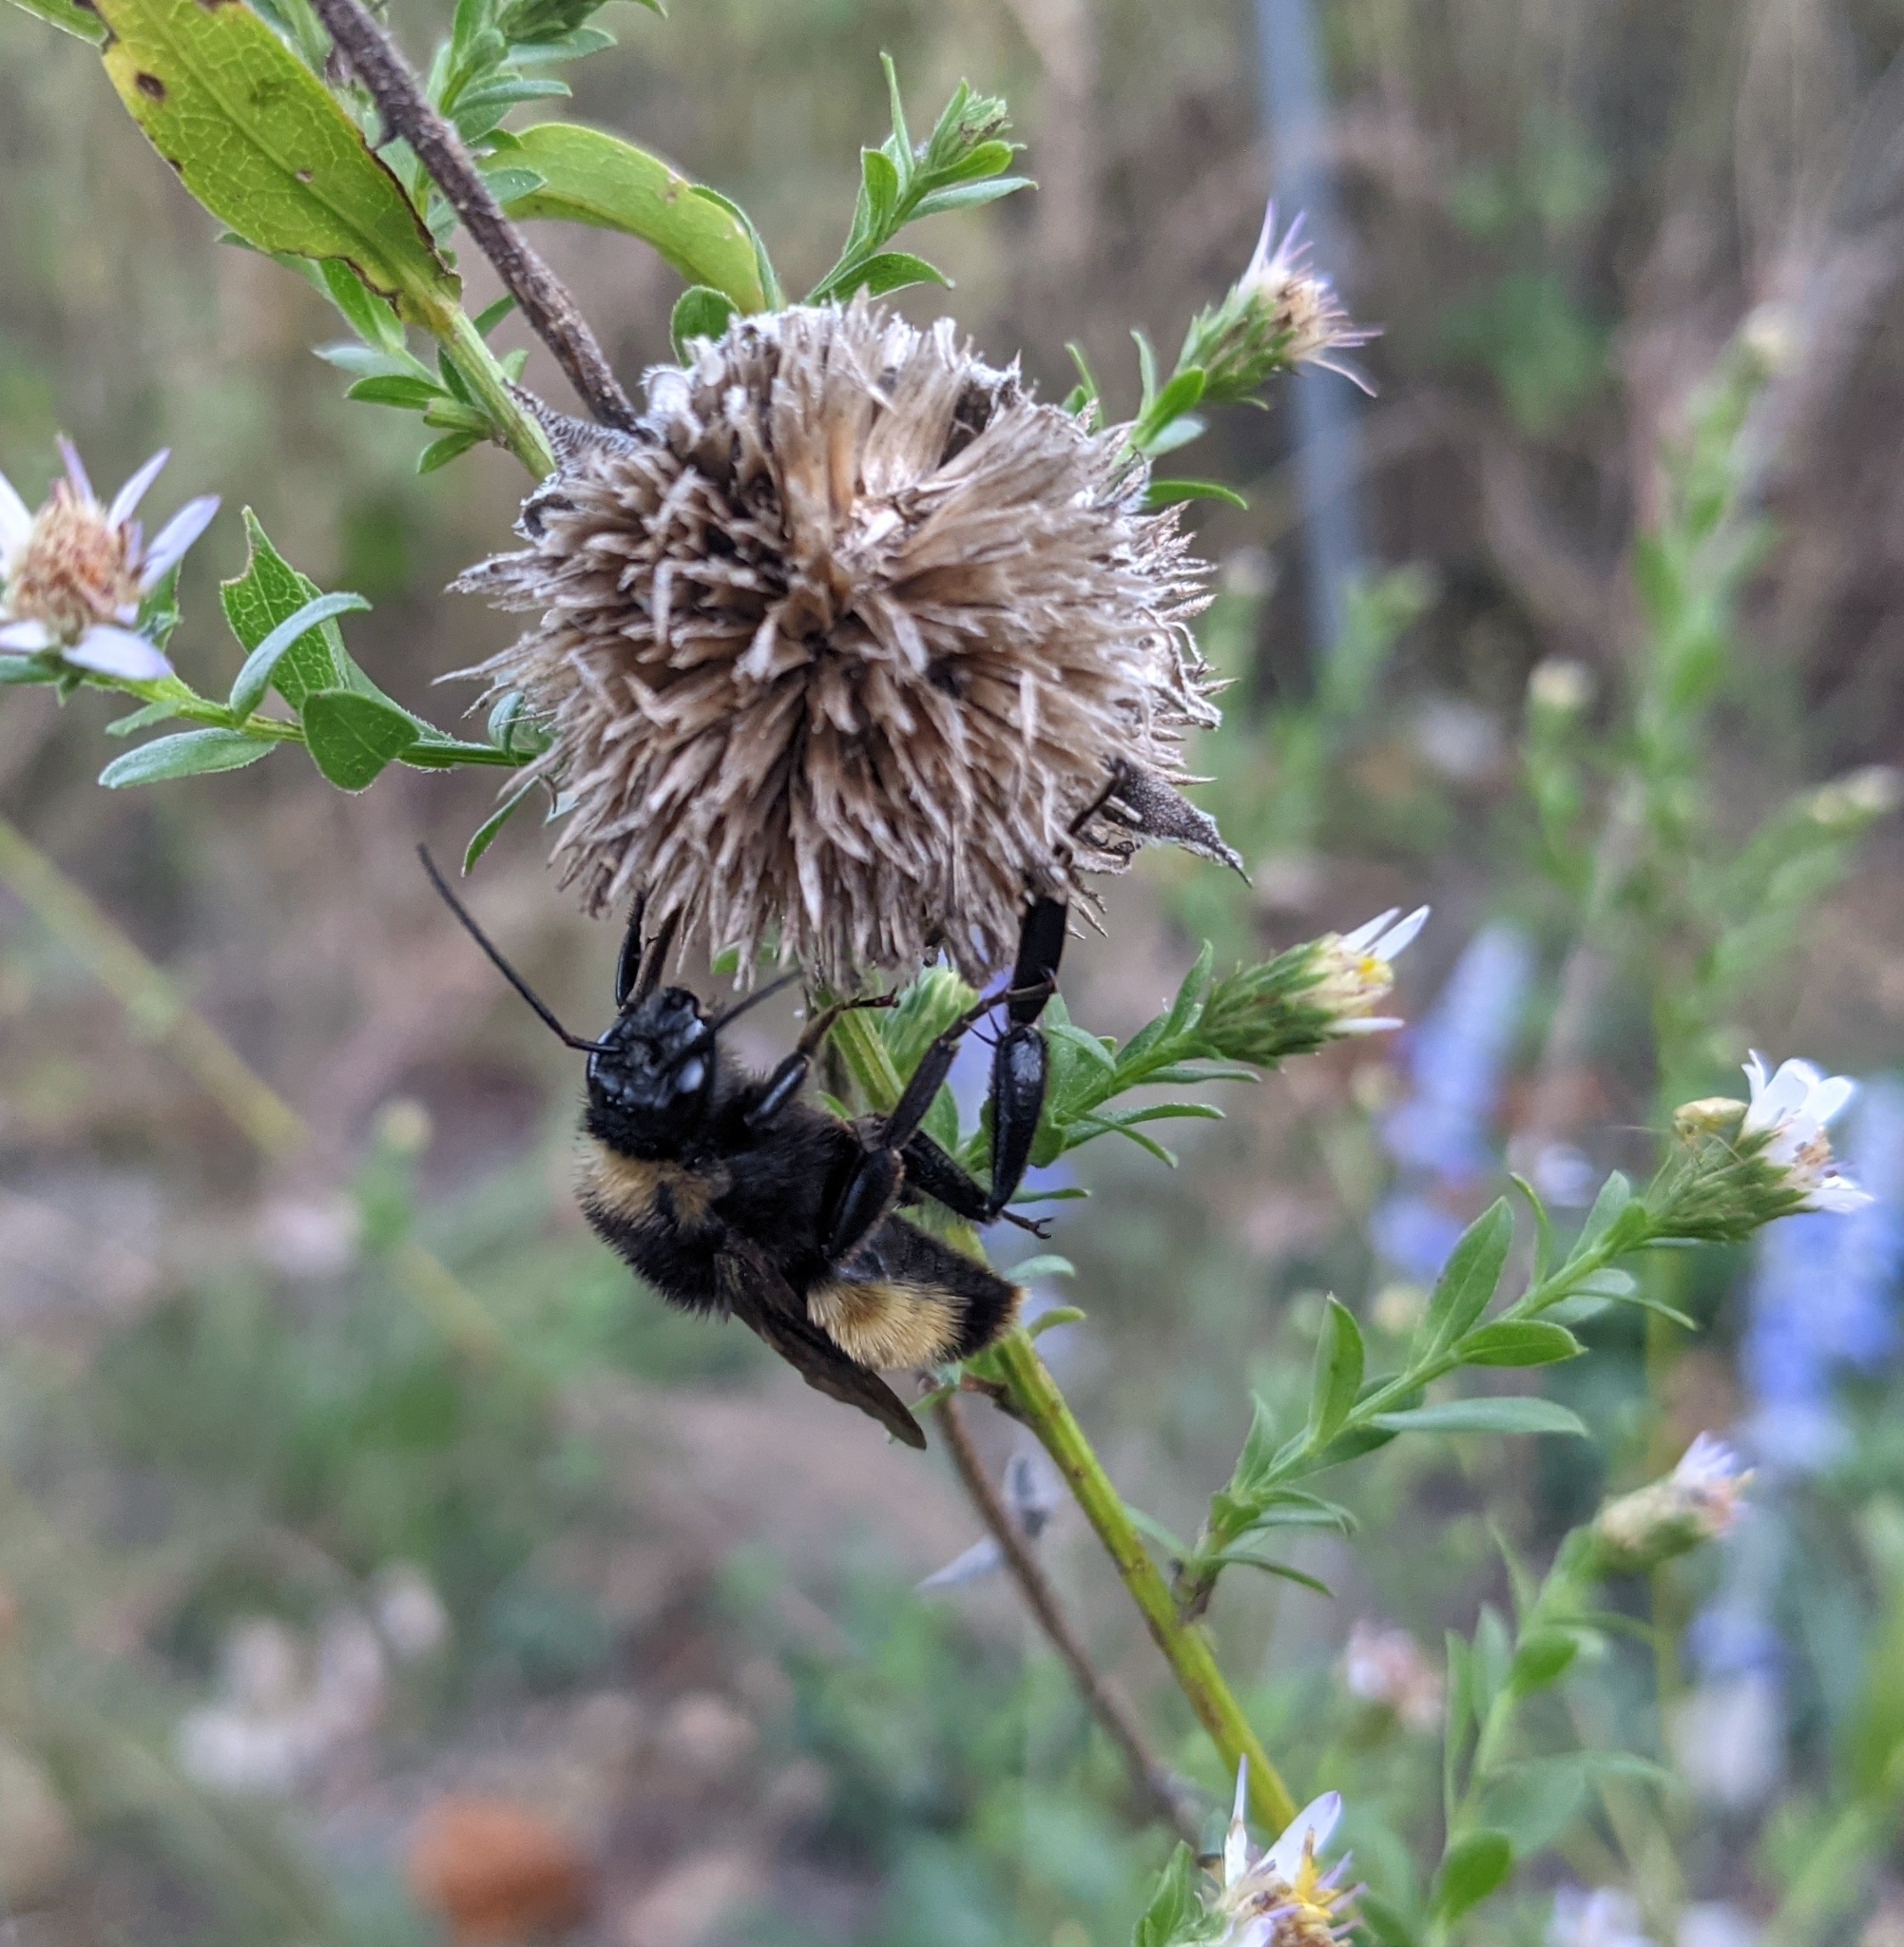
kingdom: Animalia
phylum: Arthropoda
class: Insecta
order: Hymenoptera
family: Apidae
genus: Bombus
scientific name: Bombus pensylvanicus
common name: Bumble bee
